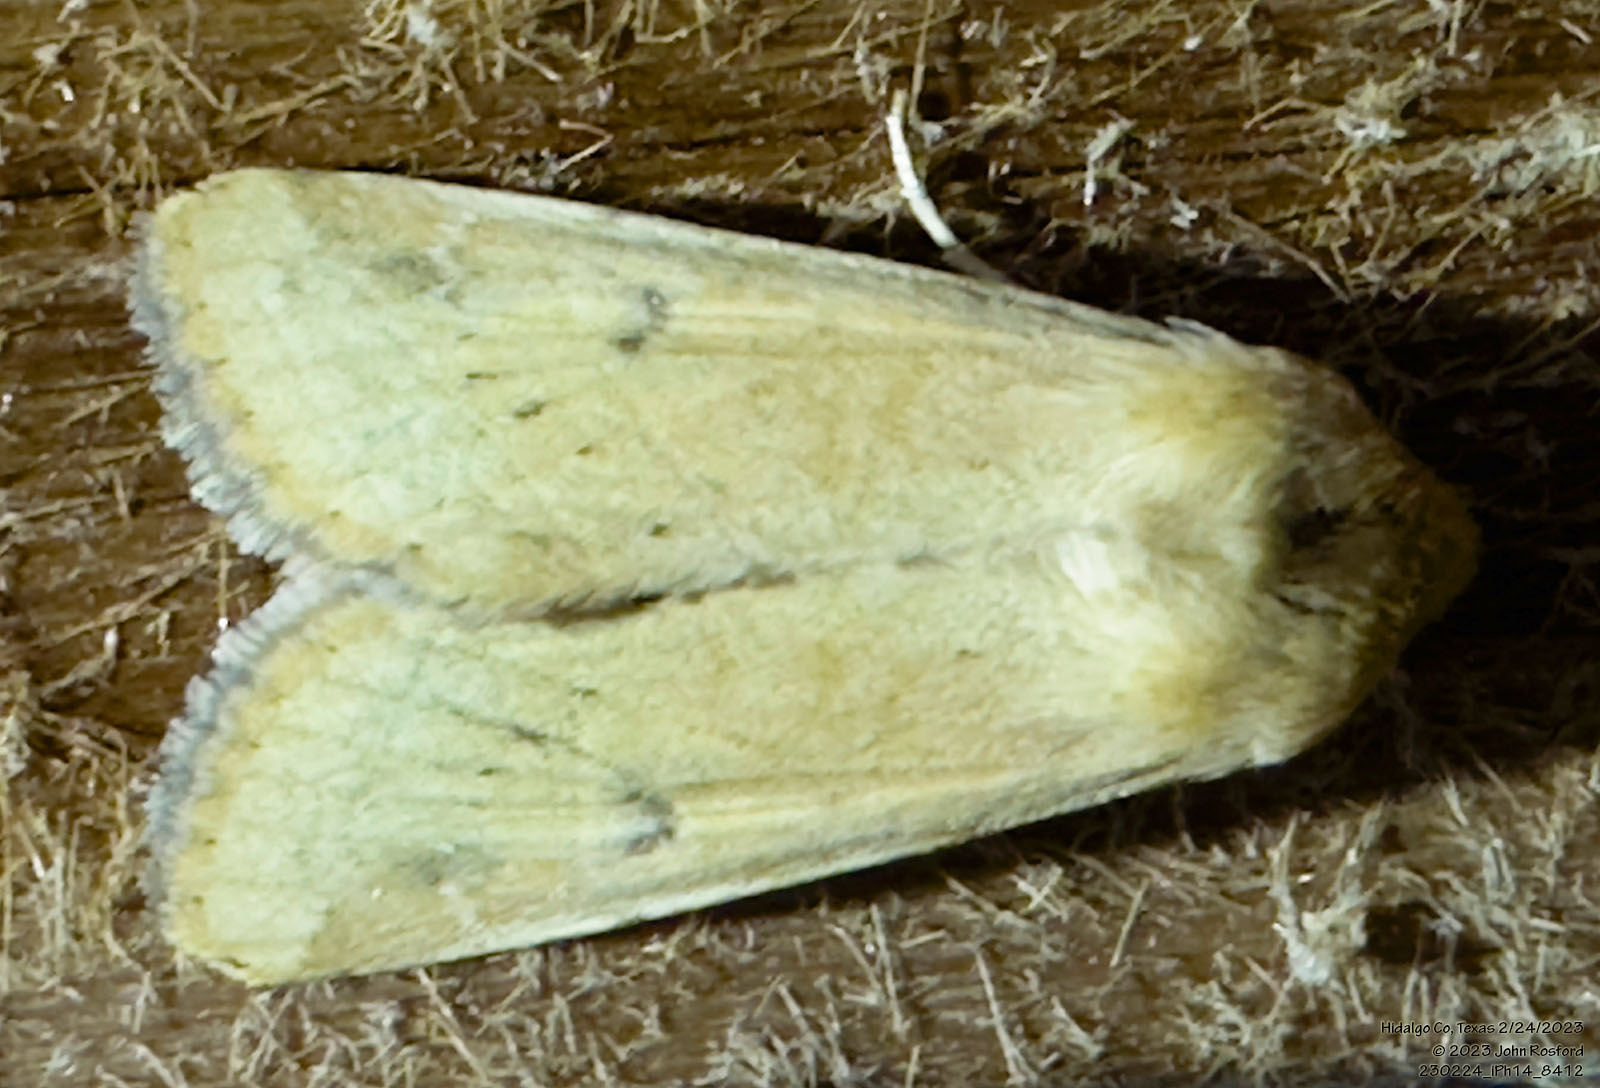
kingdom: Animalia
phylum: Arthropoda
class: Insecta
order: Lepidoptera
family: Noctuidae
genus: Helicoverpa
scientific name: Helicoverpa zea
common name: Bollworm
